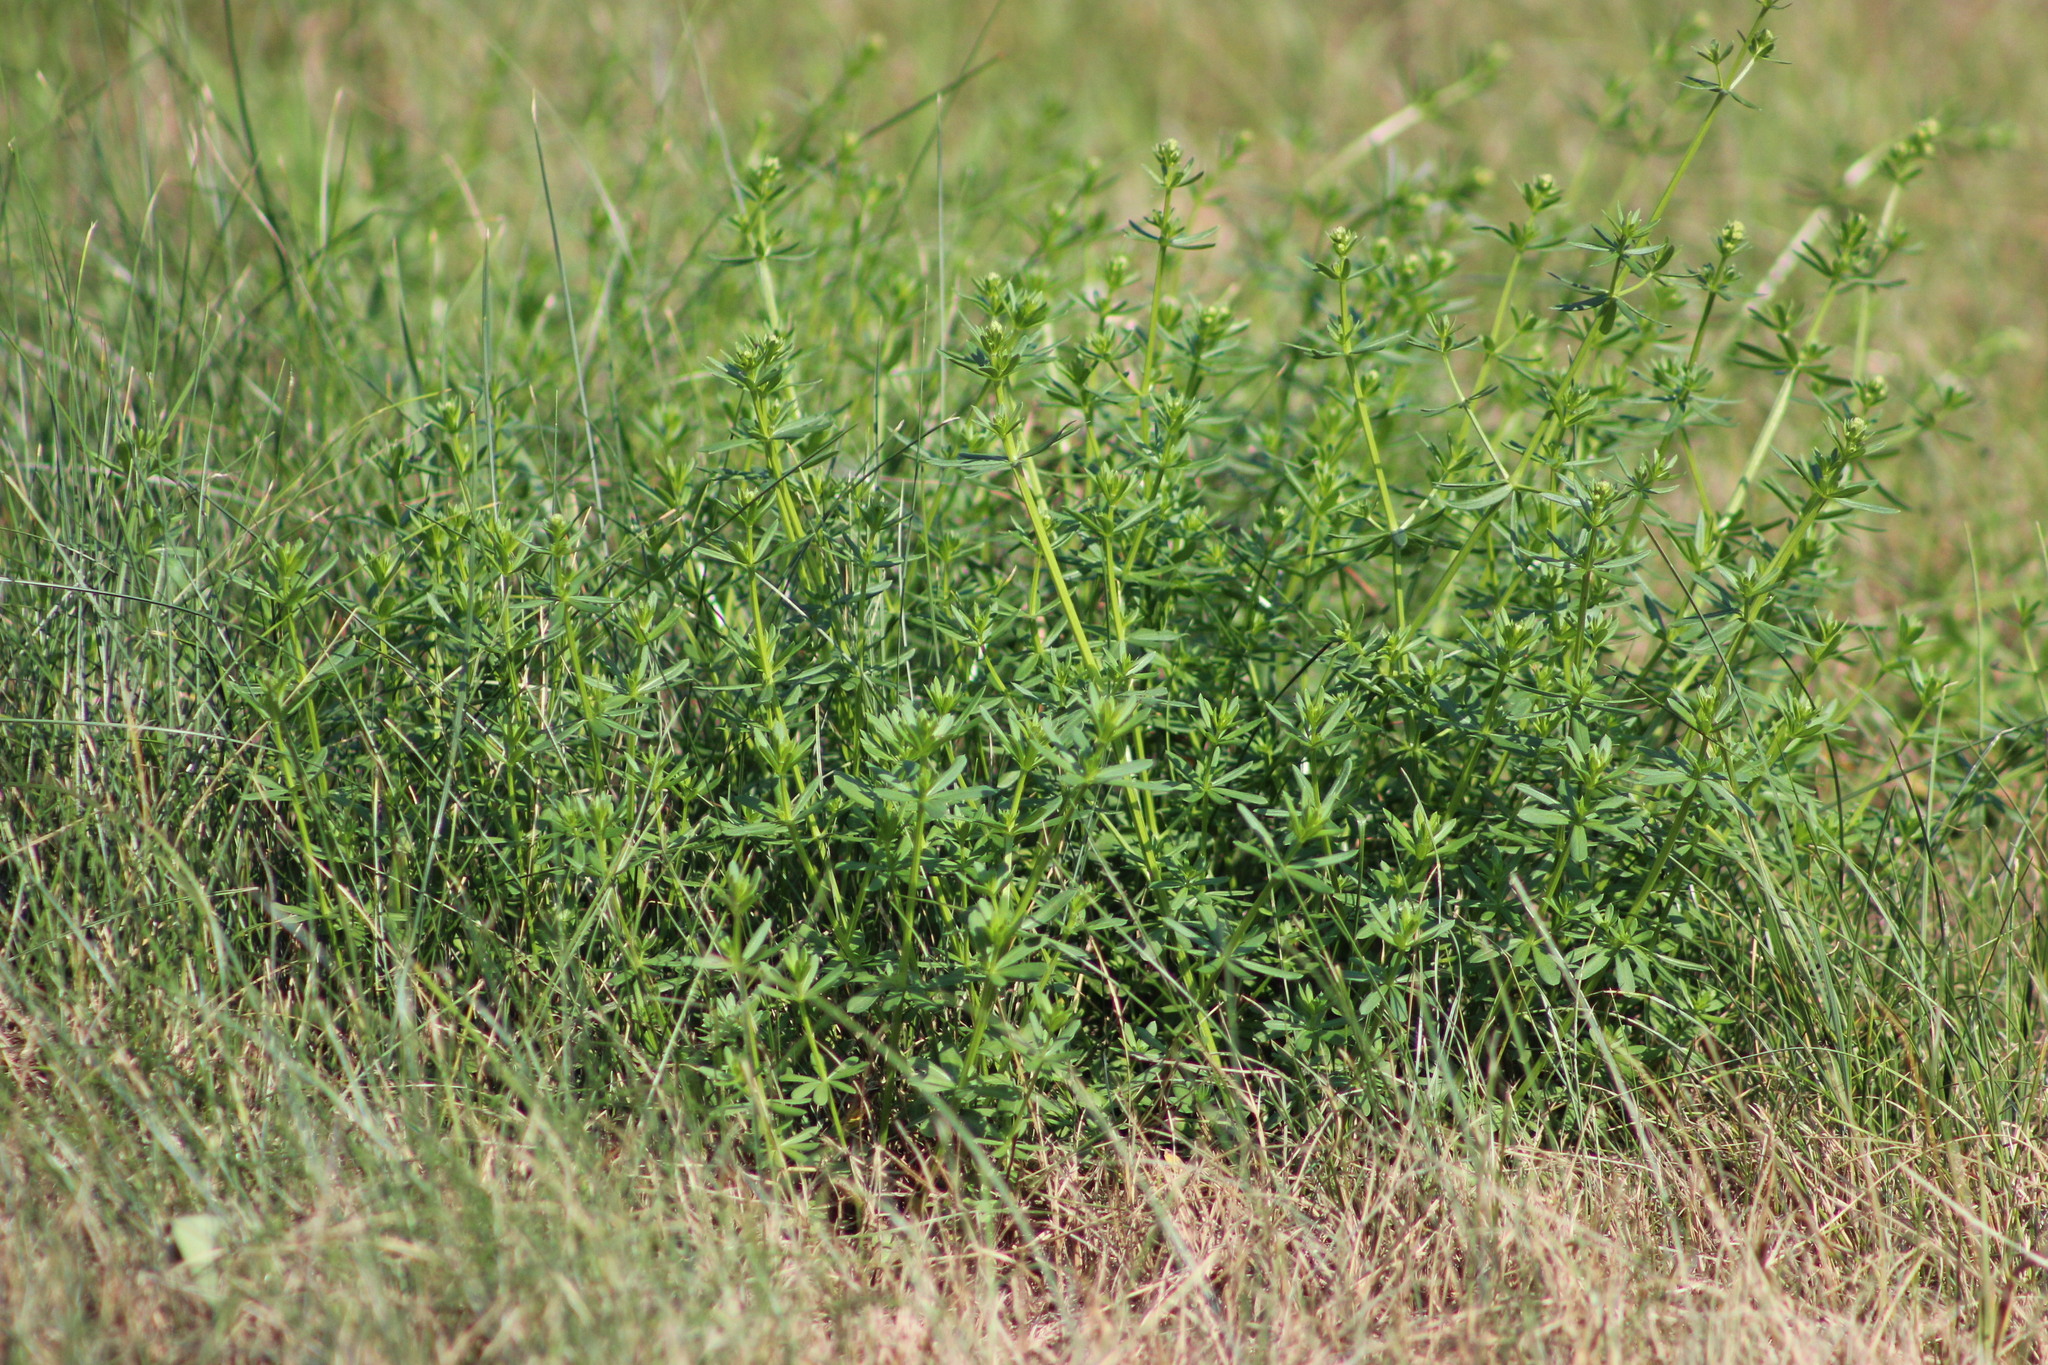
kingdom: Plantae
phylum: Tracheophyta
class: Magnoliopsida
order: Gentianales
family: Rubiaceae
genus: Galium
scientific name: Galium mollugo
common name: Hedge bedstraw
